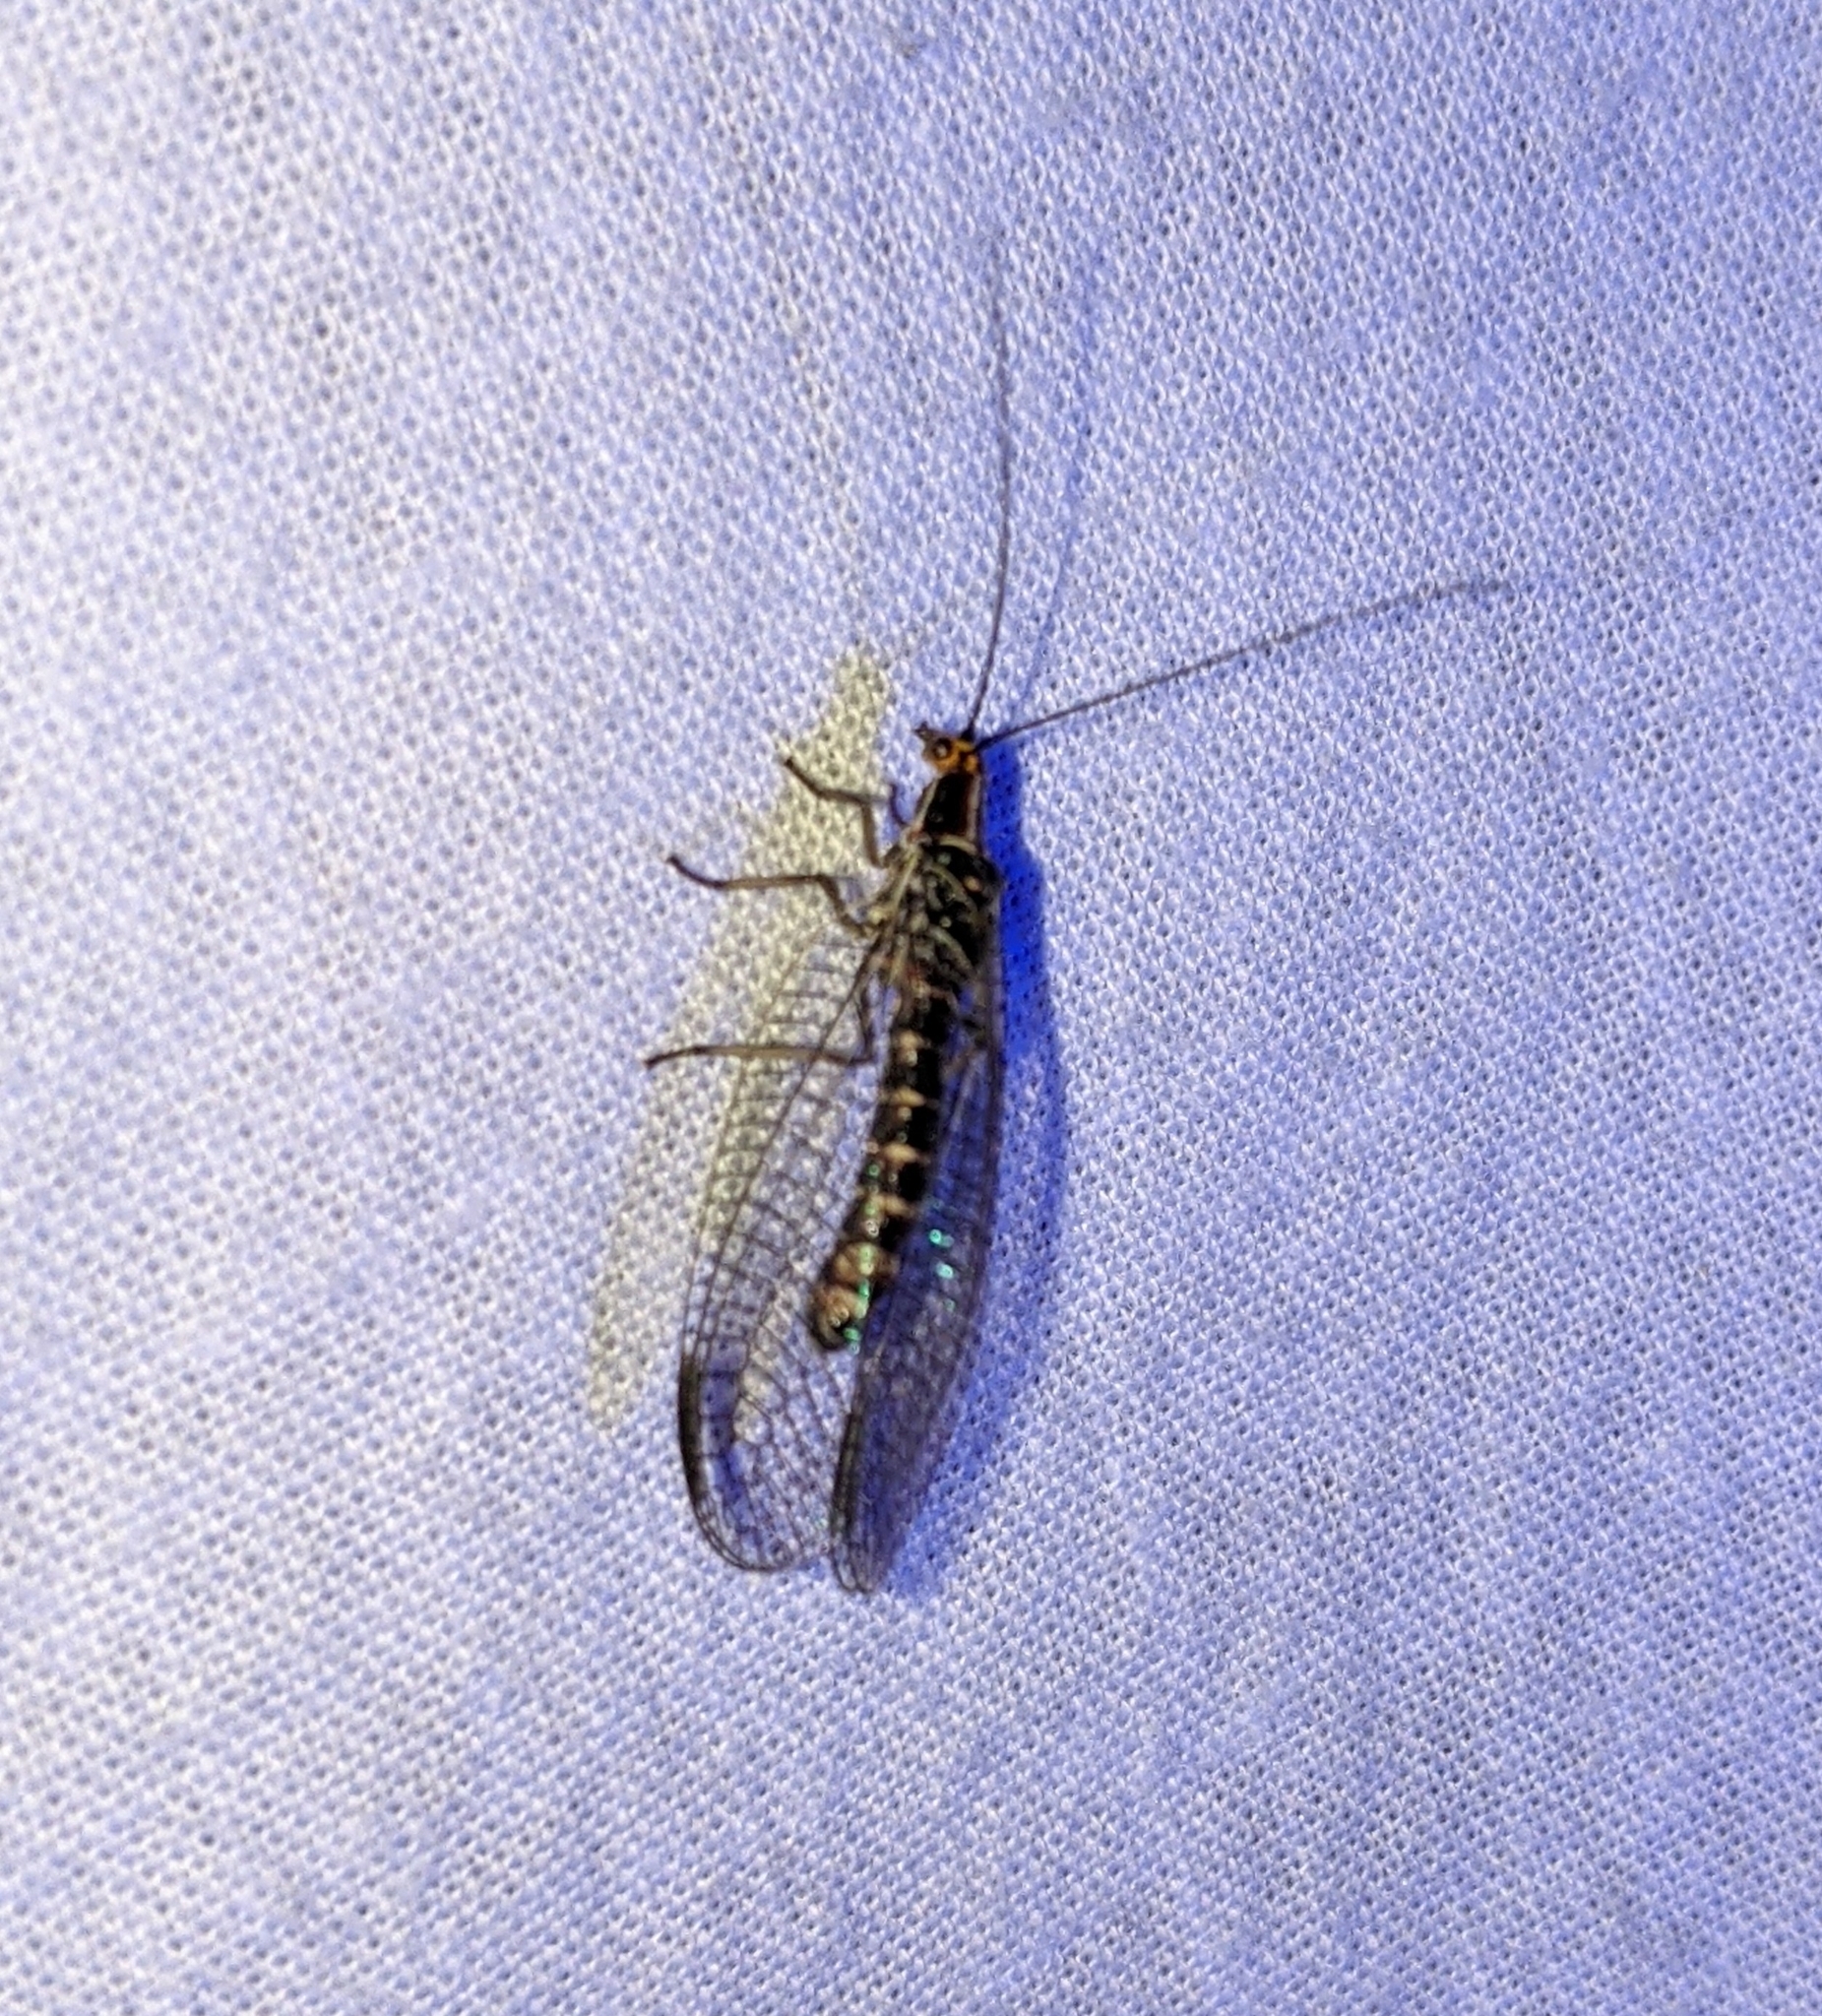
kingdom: Animalia
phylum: Arthropoda
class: Insecta
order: Neuroptera
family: Chrysopidae
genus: Nothochrysa
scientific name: Nothochrysa californica
